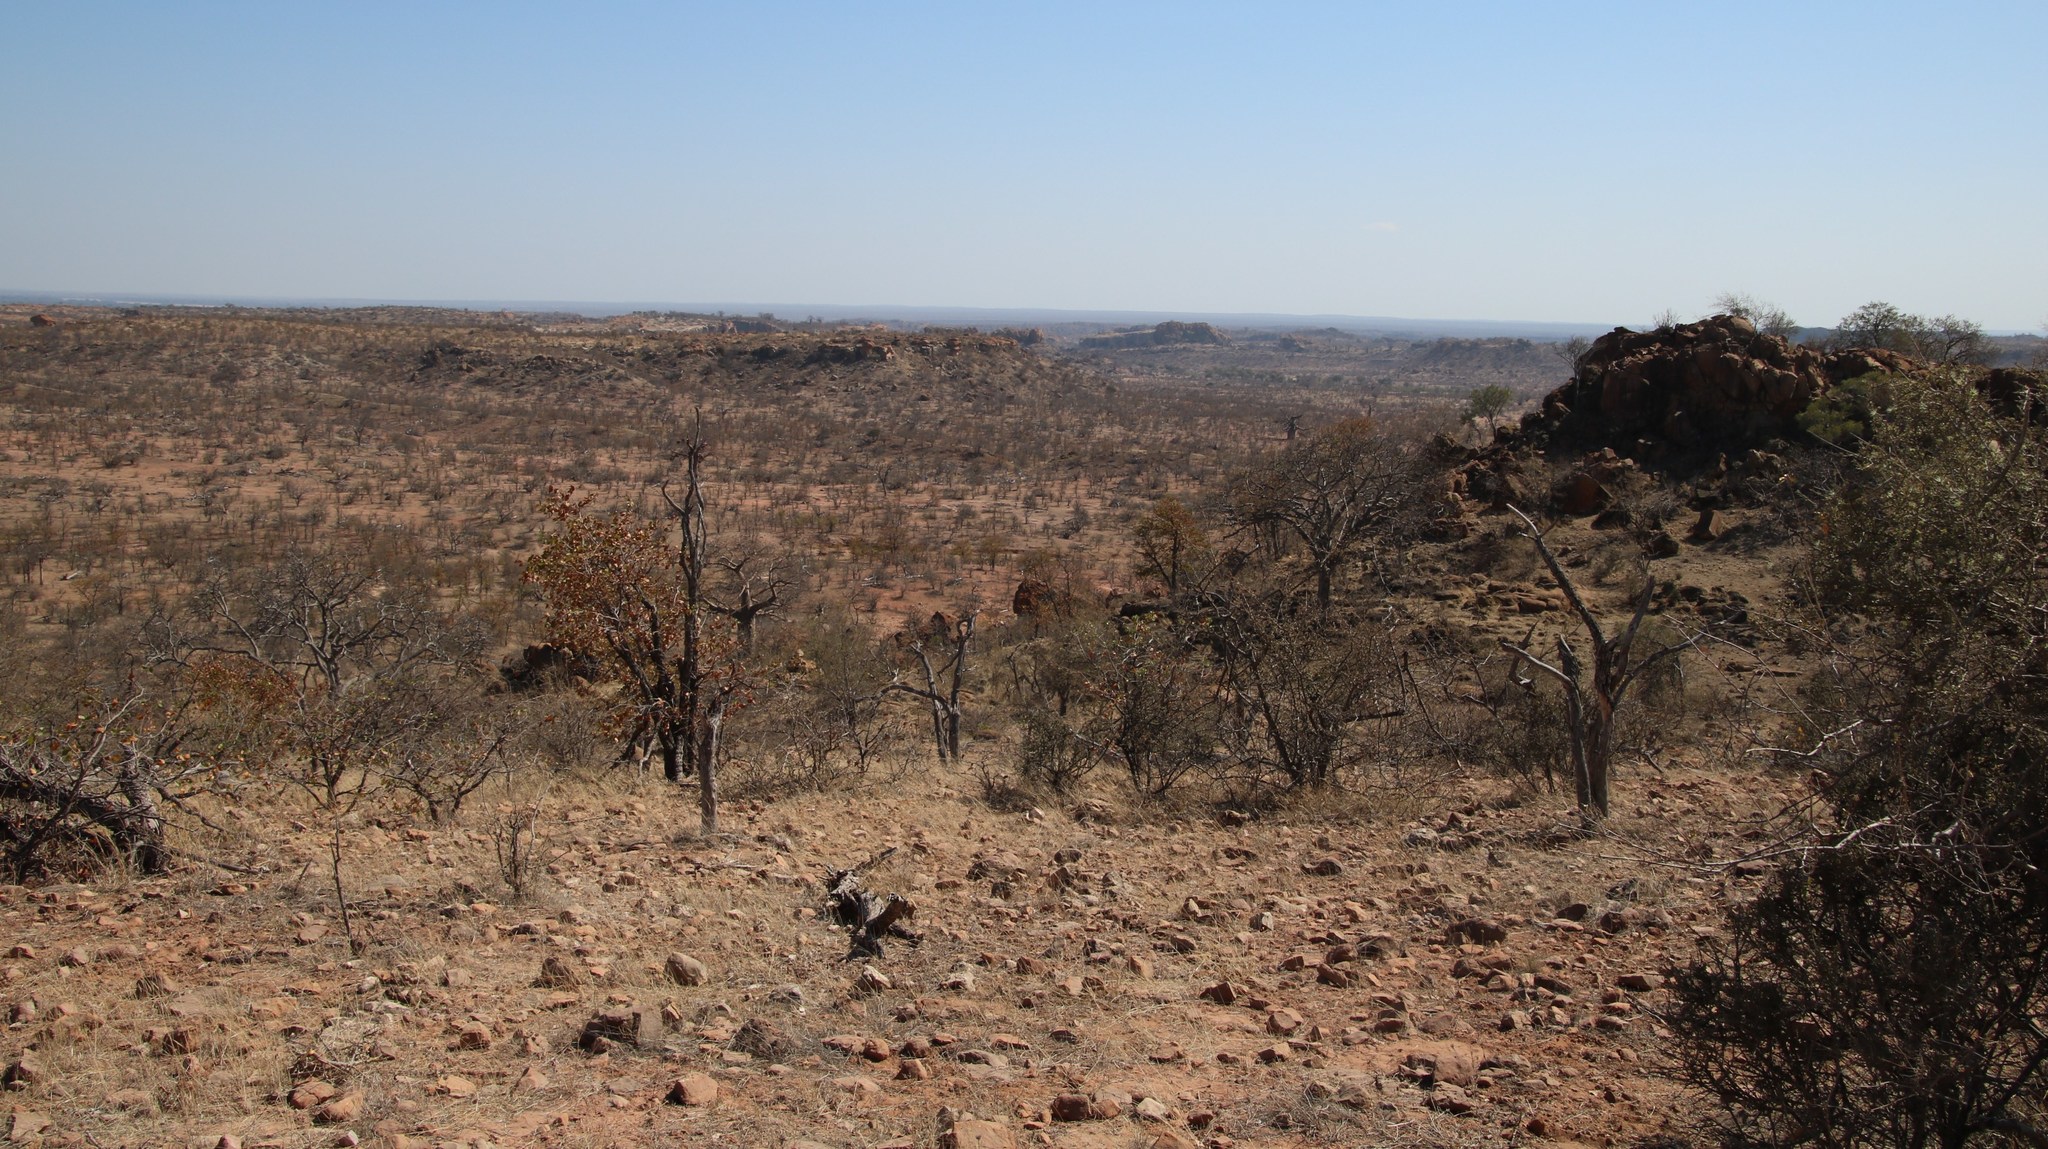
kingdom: Plantae
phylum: Tracheophyta
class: Magnoliopsida
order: Fabales
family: Fabaceae
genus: Colophospermum
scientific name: Colophospermum mopane
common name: Mopane
